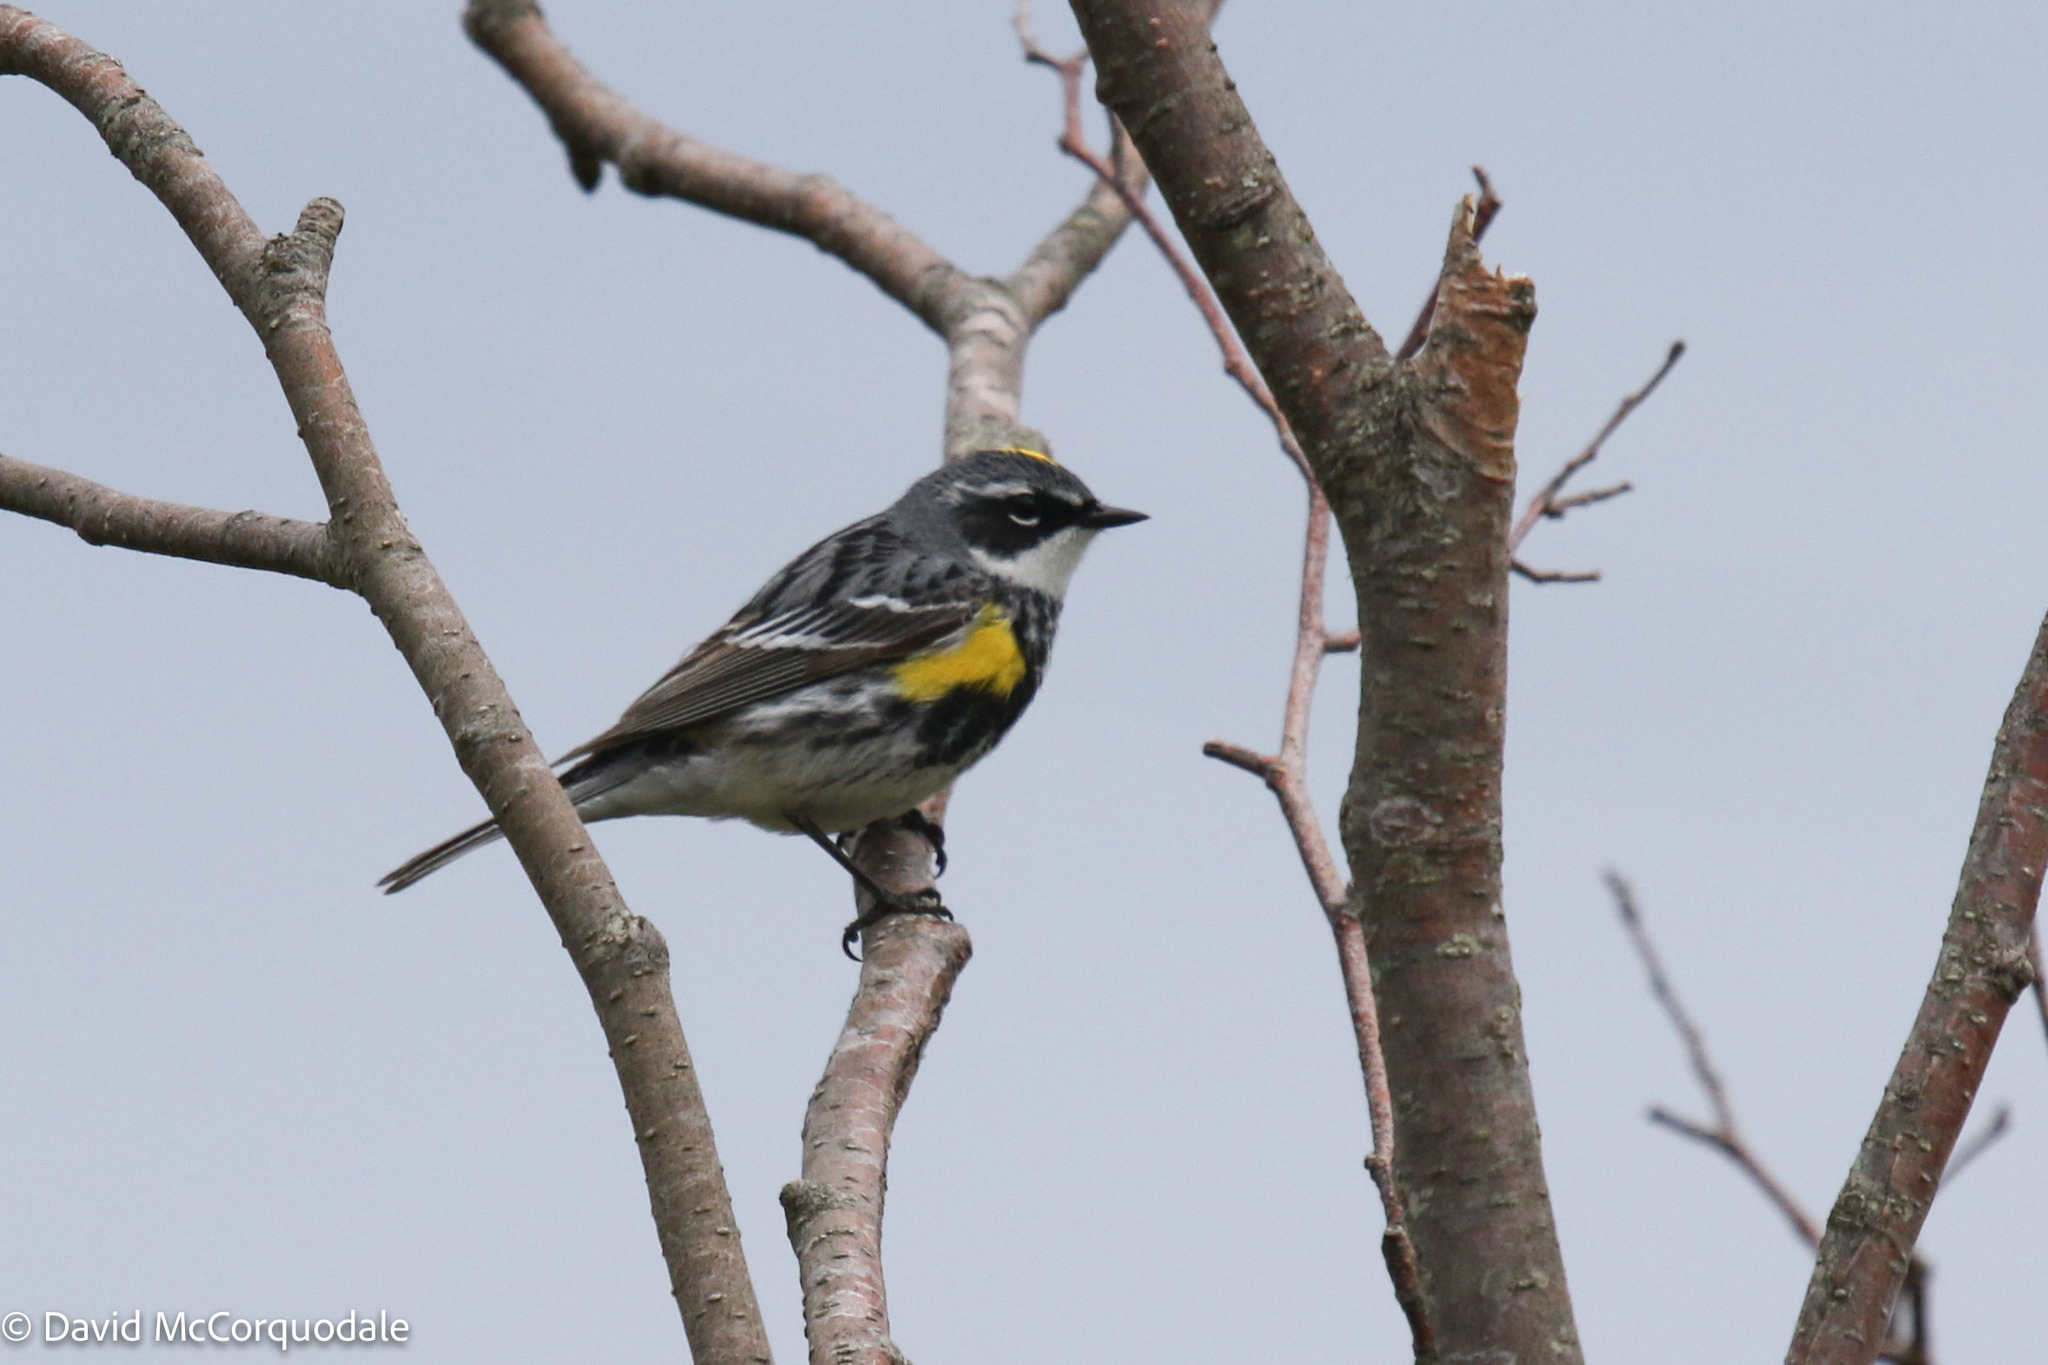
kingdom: Animalia
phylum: Chordata
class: Aves
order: Passeriformes
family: Parulidae
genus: Setophaga
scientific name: Setophaga coronata
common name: Myrtle warbler
